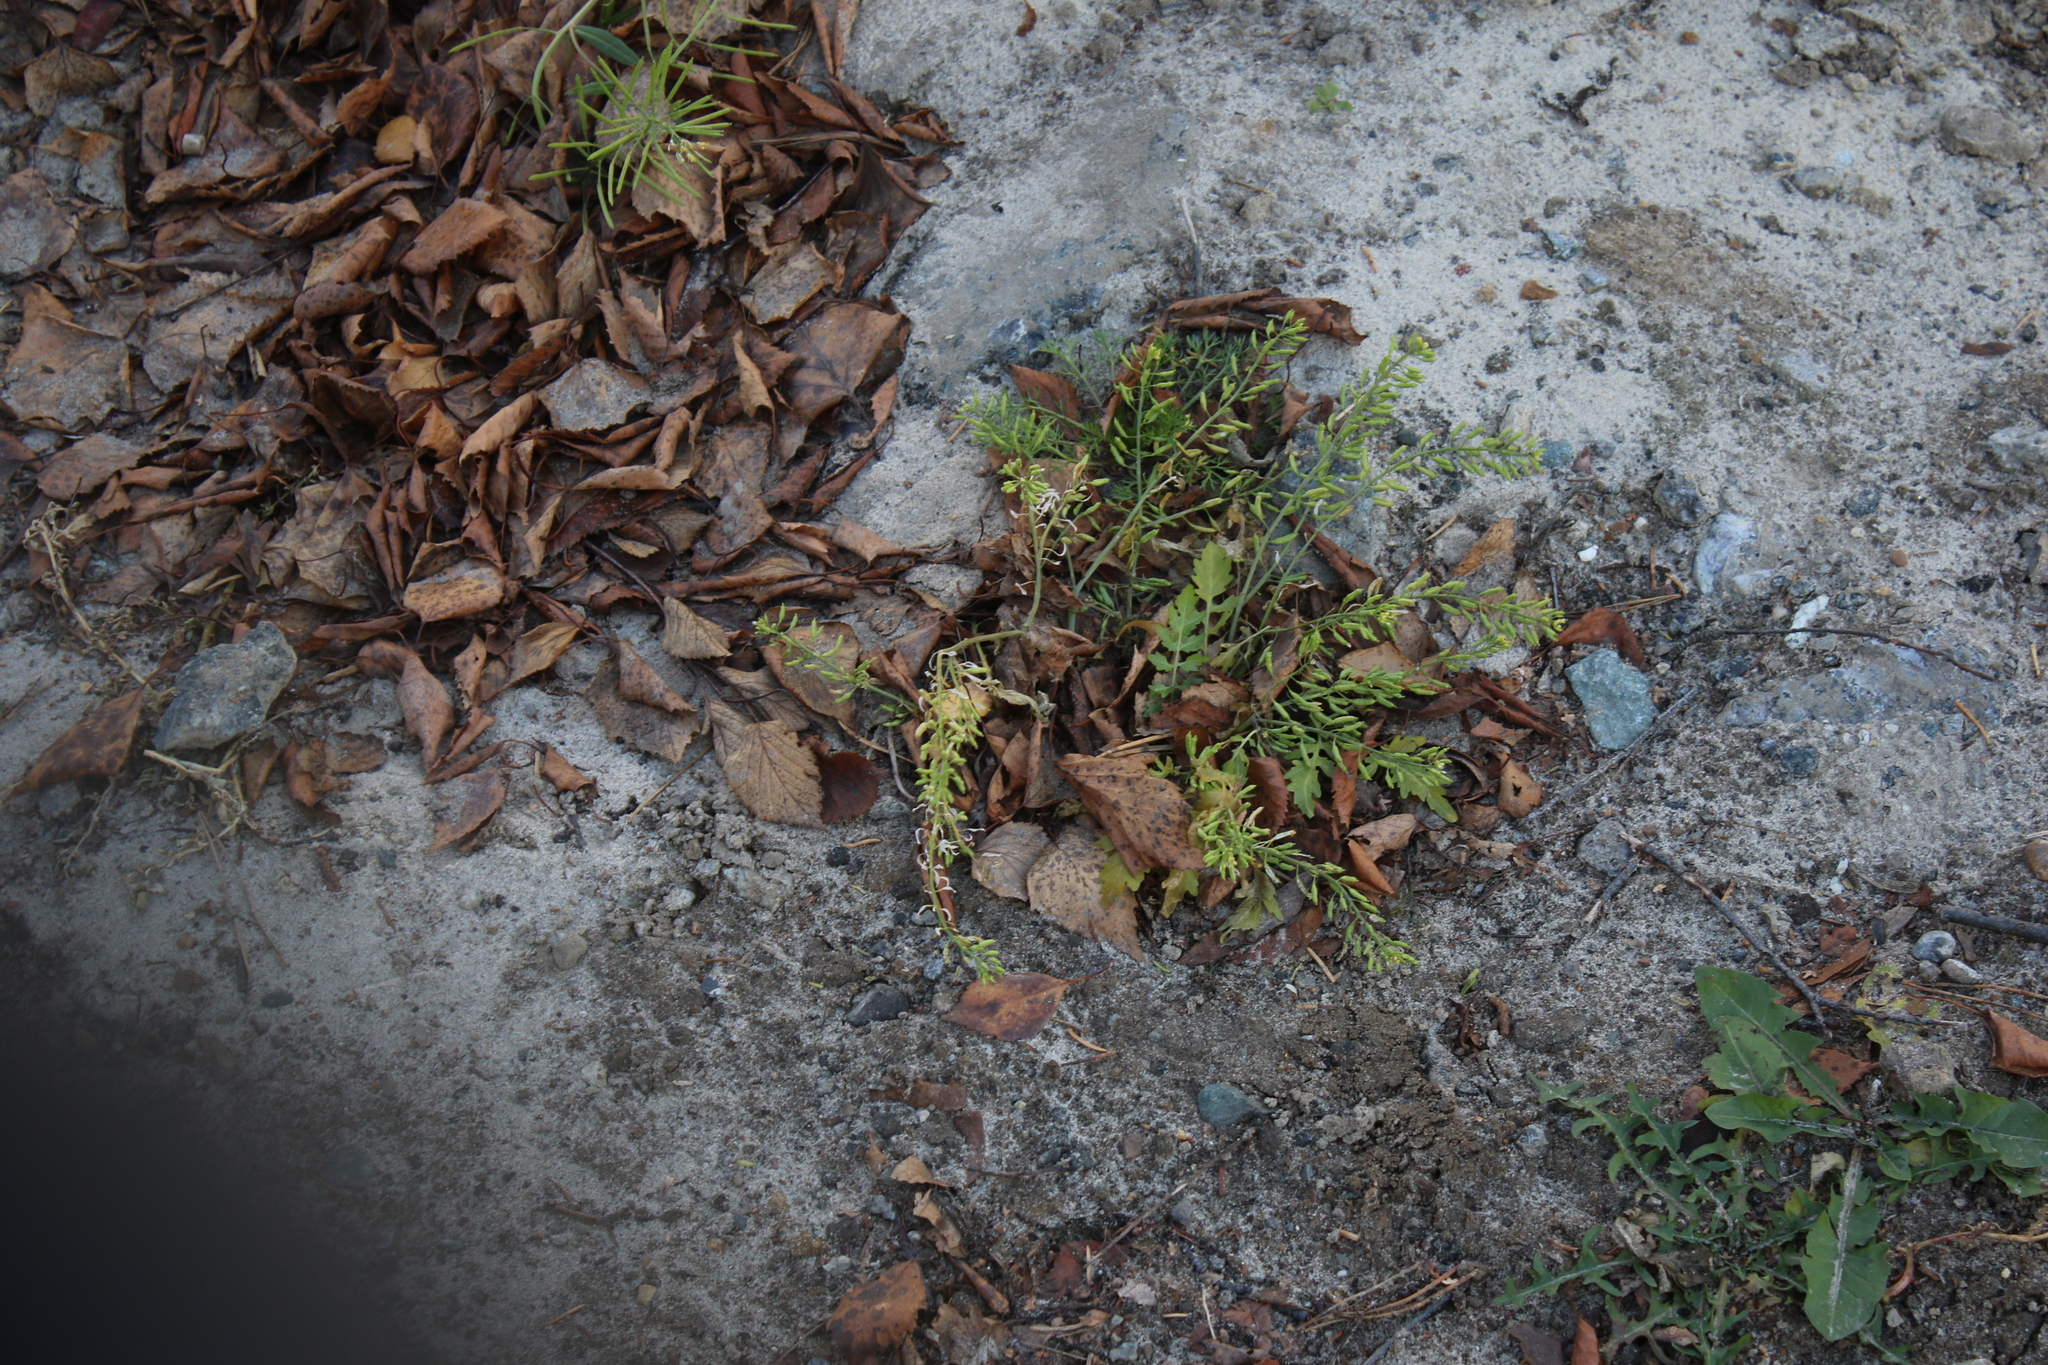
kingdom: Plantae
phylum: Tracheophyta
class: Magnoliopsida
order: Brassicales
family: Brassicaceae
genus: Rorippa
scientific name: Rorippa palustris
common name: Marsh yellow-cress
